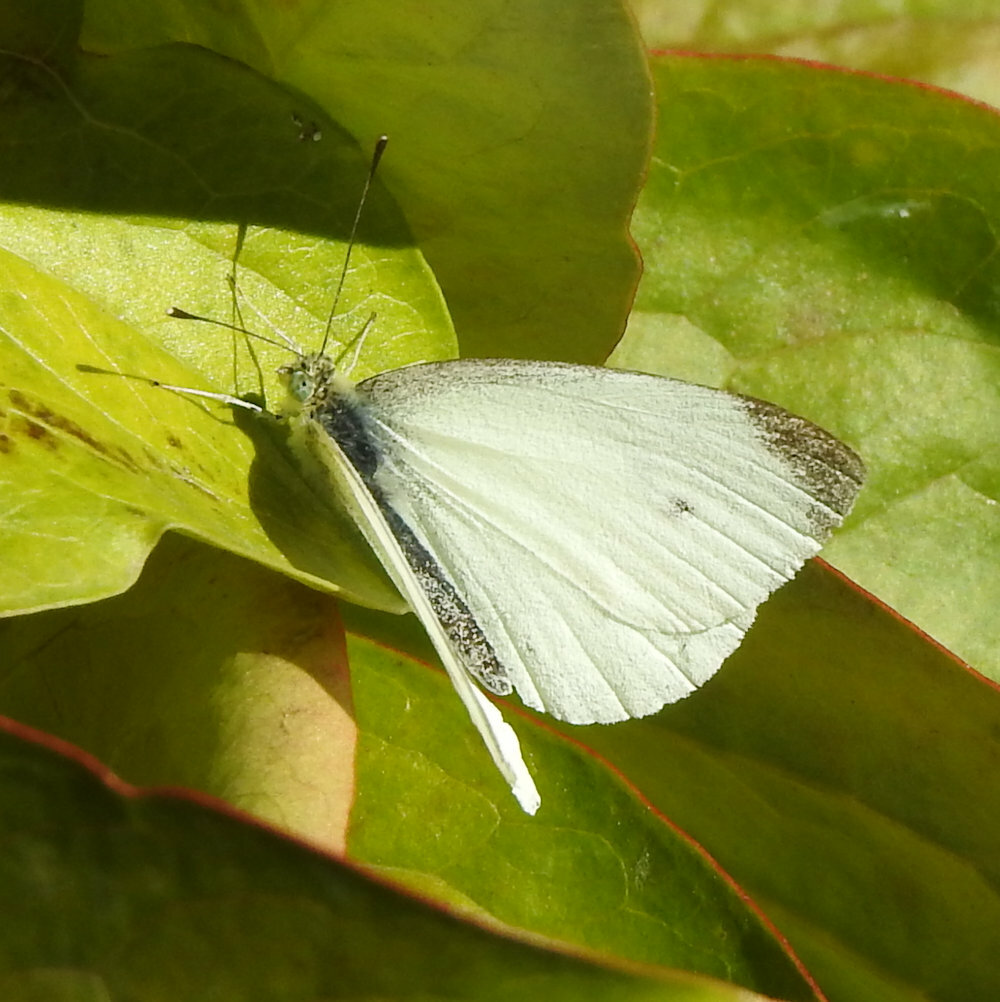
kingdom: Animalia
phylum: Arthropoda
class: Insecta
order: Lepidoptera
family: Pieridae
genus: Pieris
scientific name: Pieris rapae
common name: Small white
